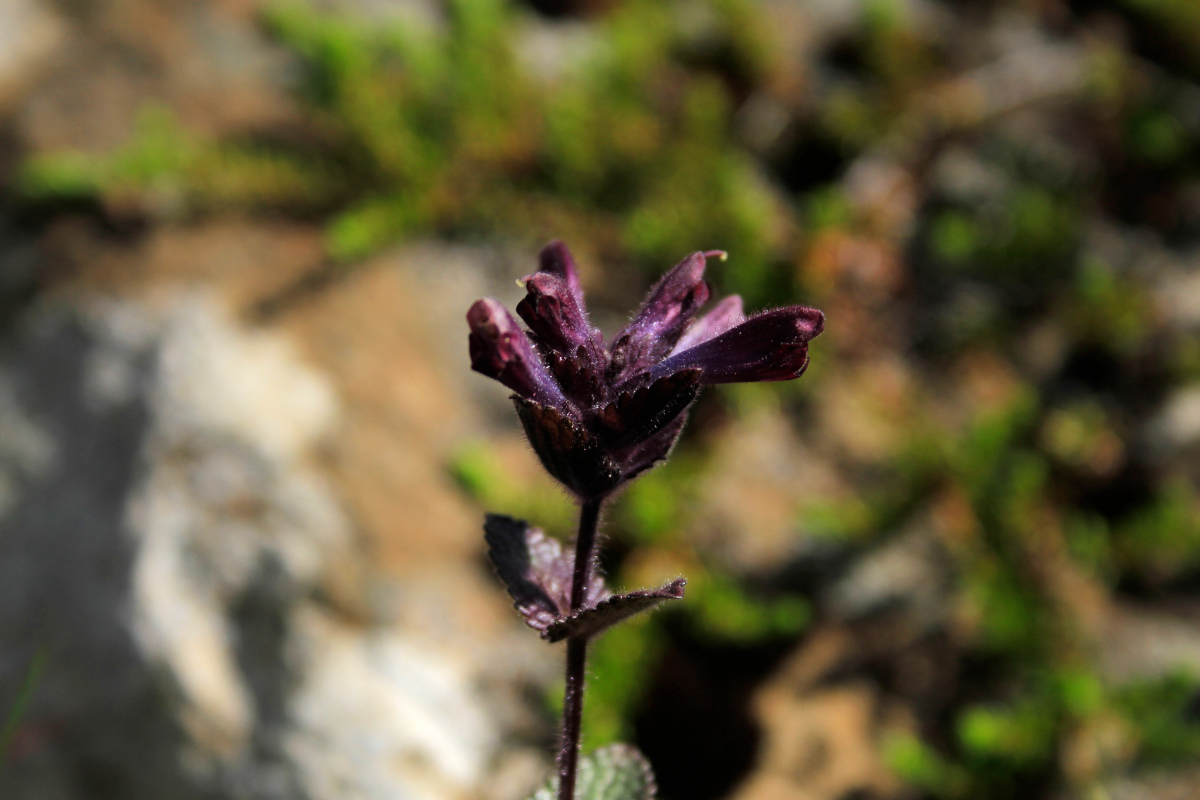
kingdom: Plantae
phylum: Tracheophyta
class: Magnoliopsida
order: Lamiales
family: Orobanchaceae
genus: Bartsia
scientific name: Bartsia alpina
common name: Alpine bartsia
